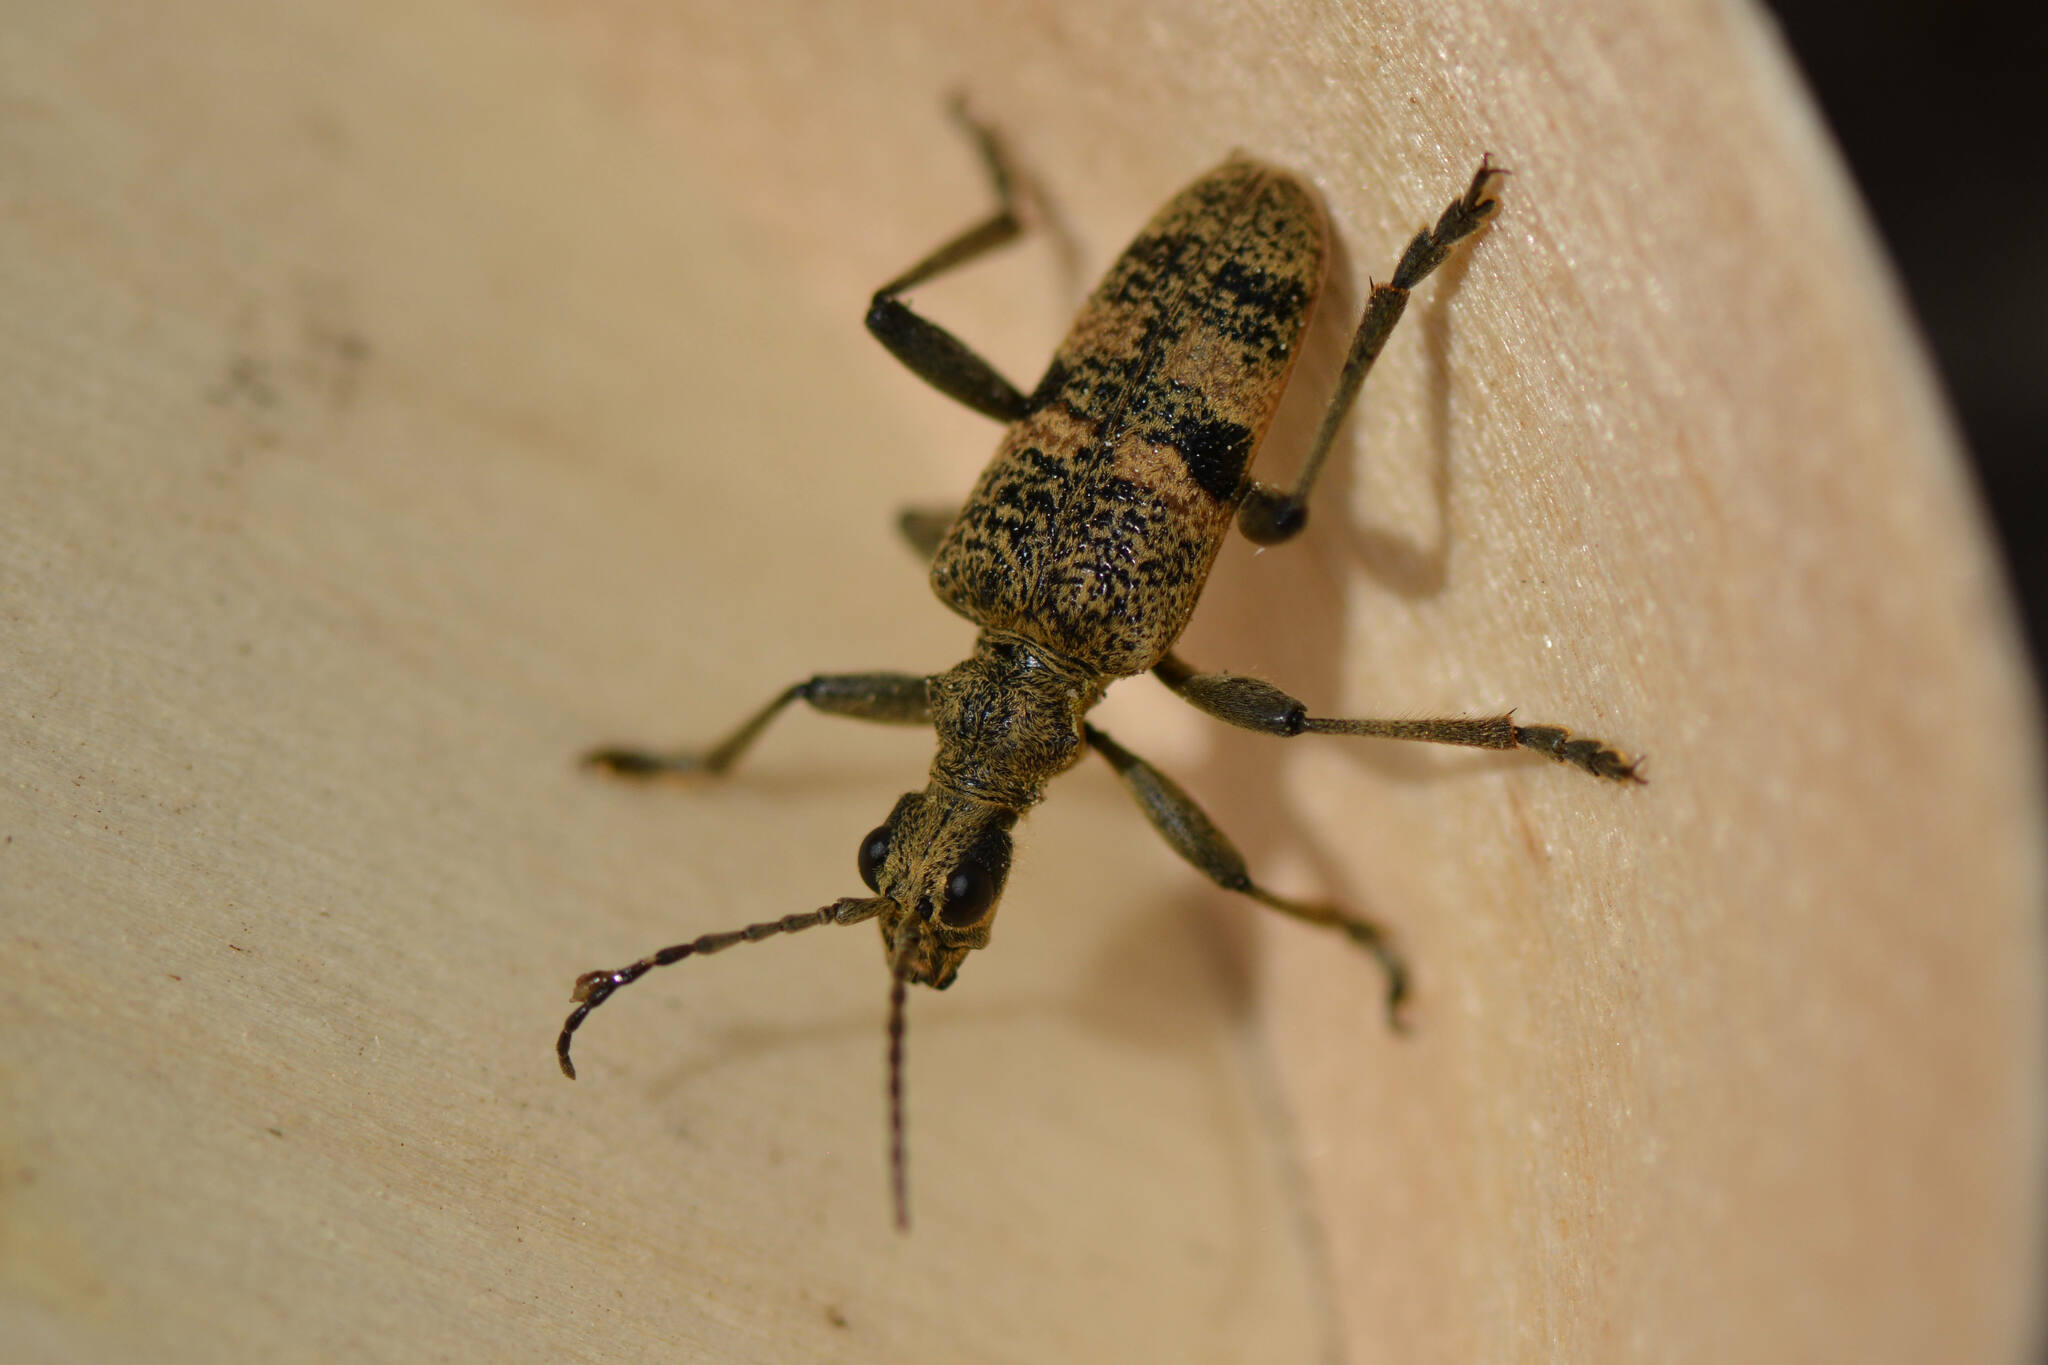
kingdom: Animalia
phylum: Arthropoda
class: Insecta
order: Coleoptera
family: Cerambycidae
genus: Rhagium
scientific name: Rhagium mordax
